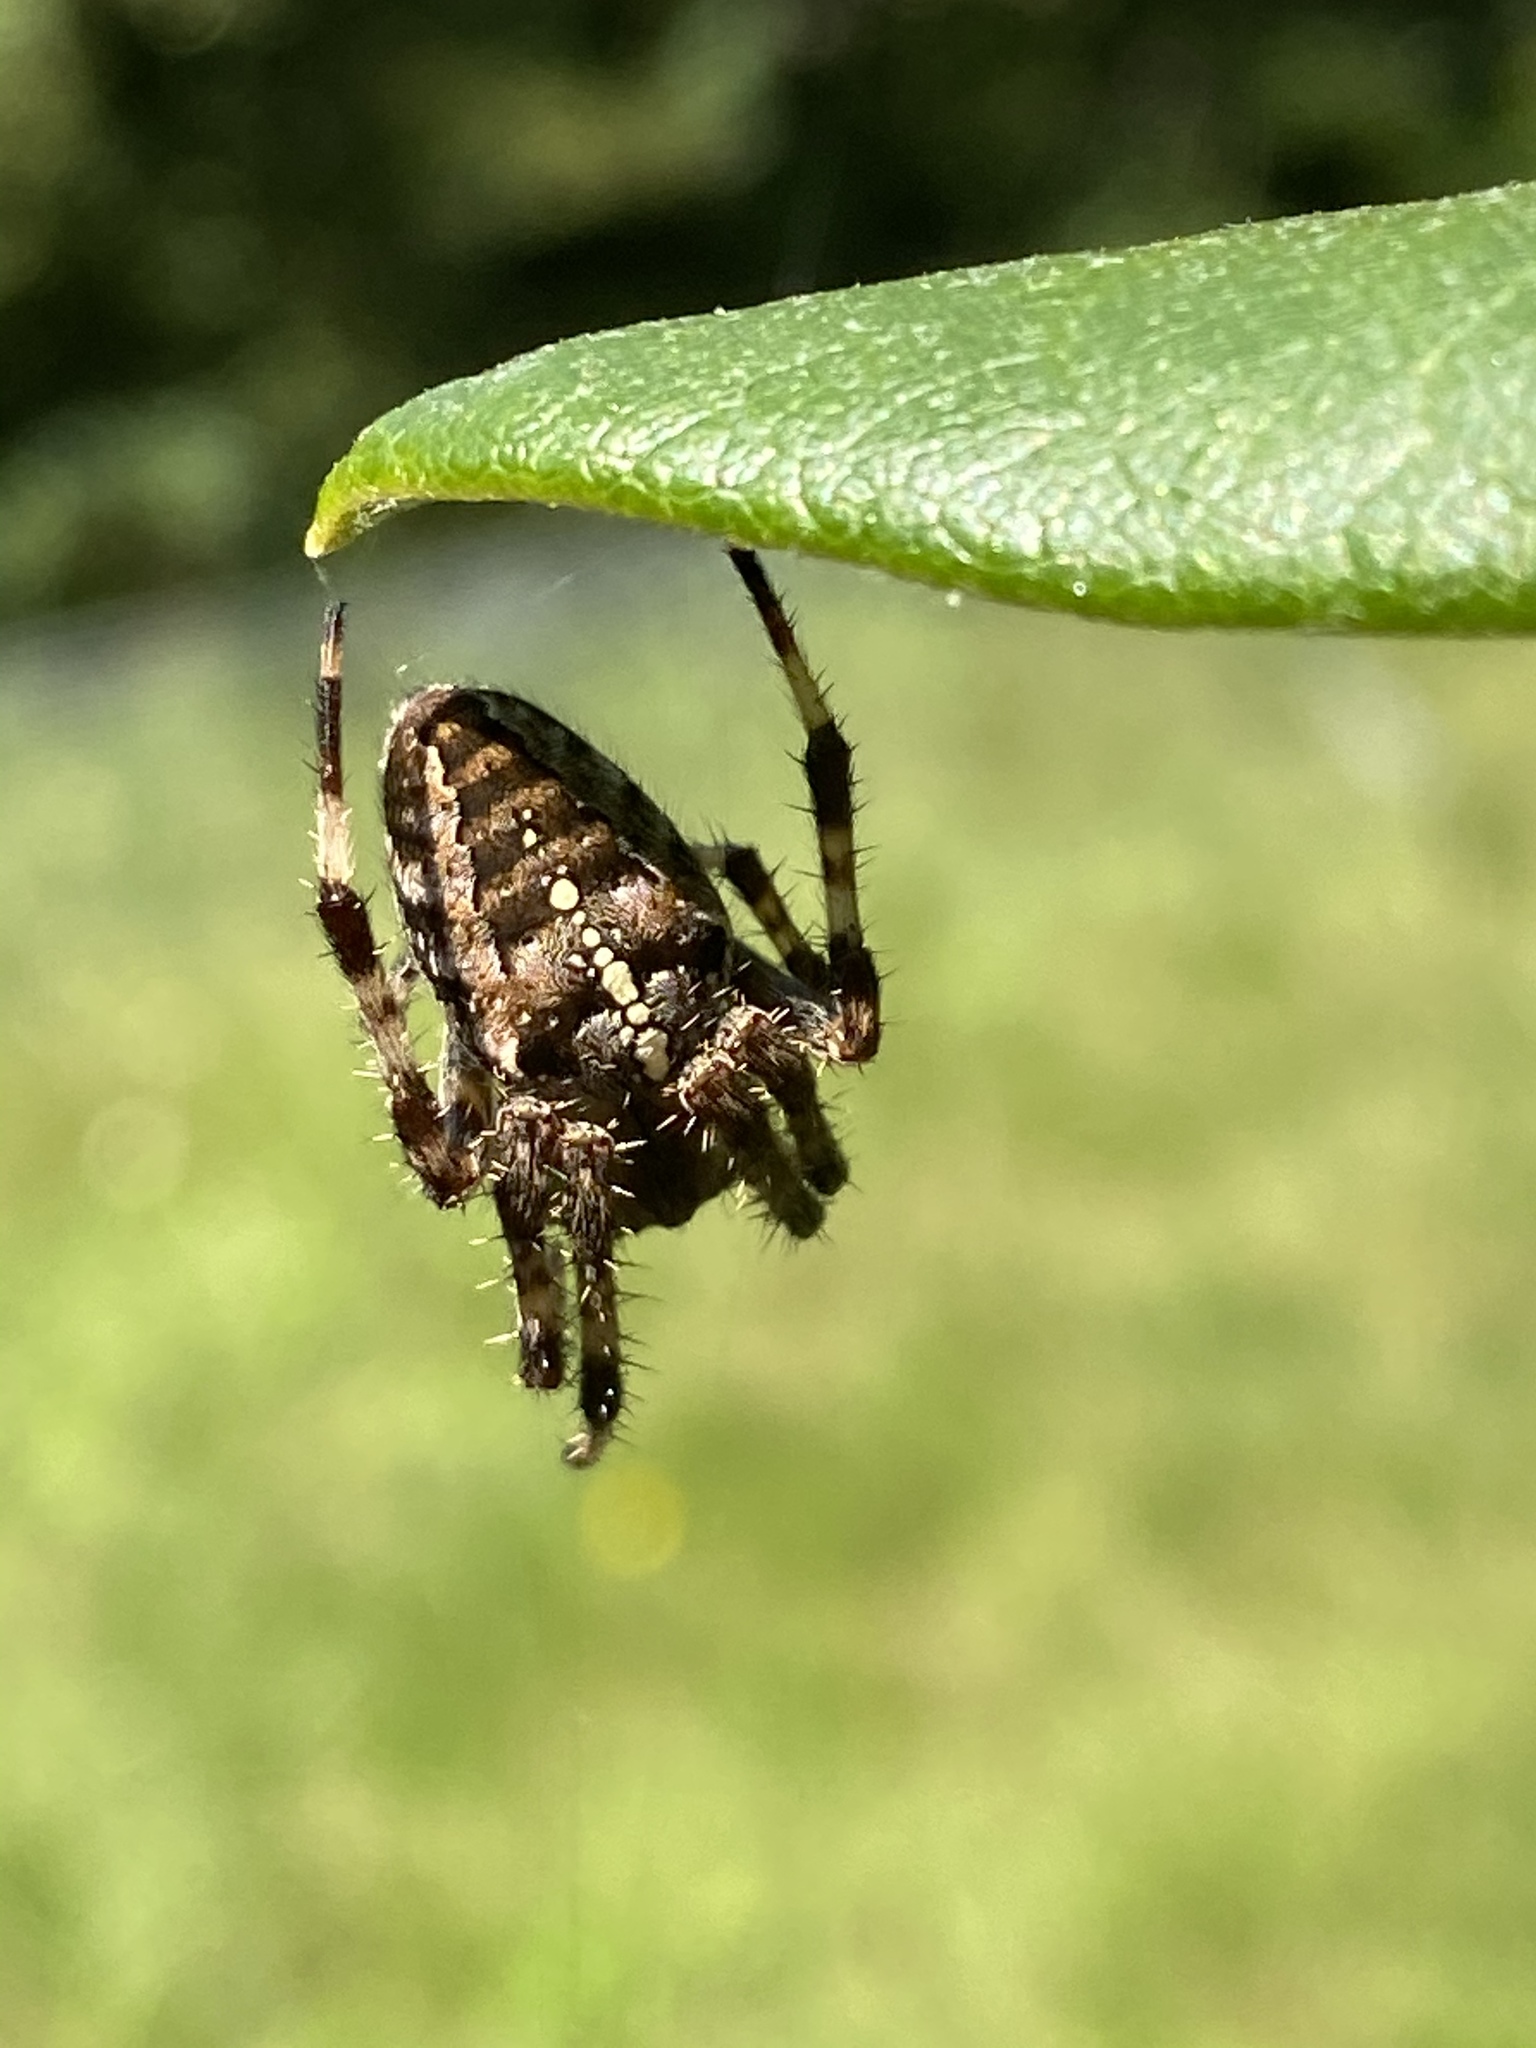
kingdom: Animalia
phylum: Arthropoda
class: Arachnida
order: Araneae
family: Araneidae
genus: Araneus
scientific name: Araneus diadematus
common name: Cross orbweaver
